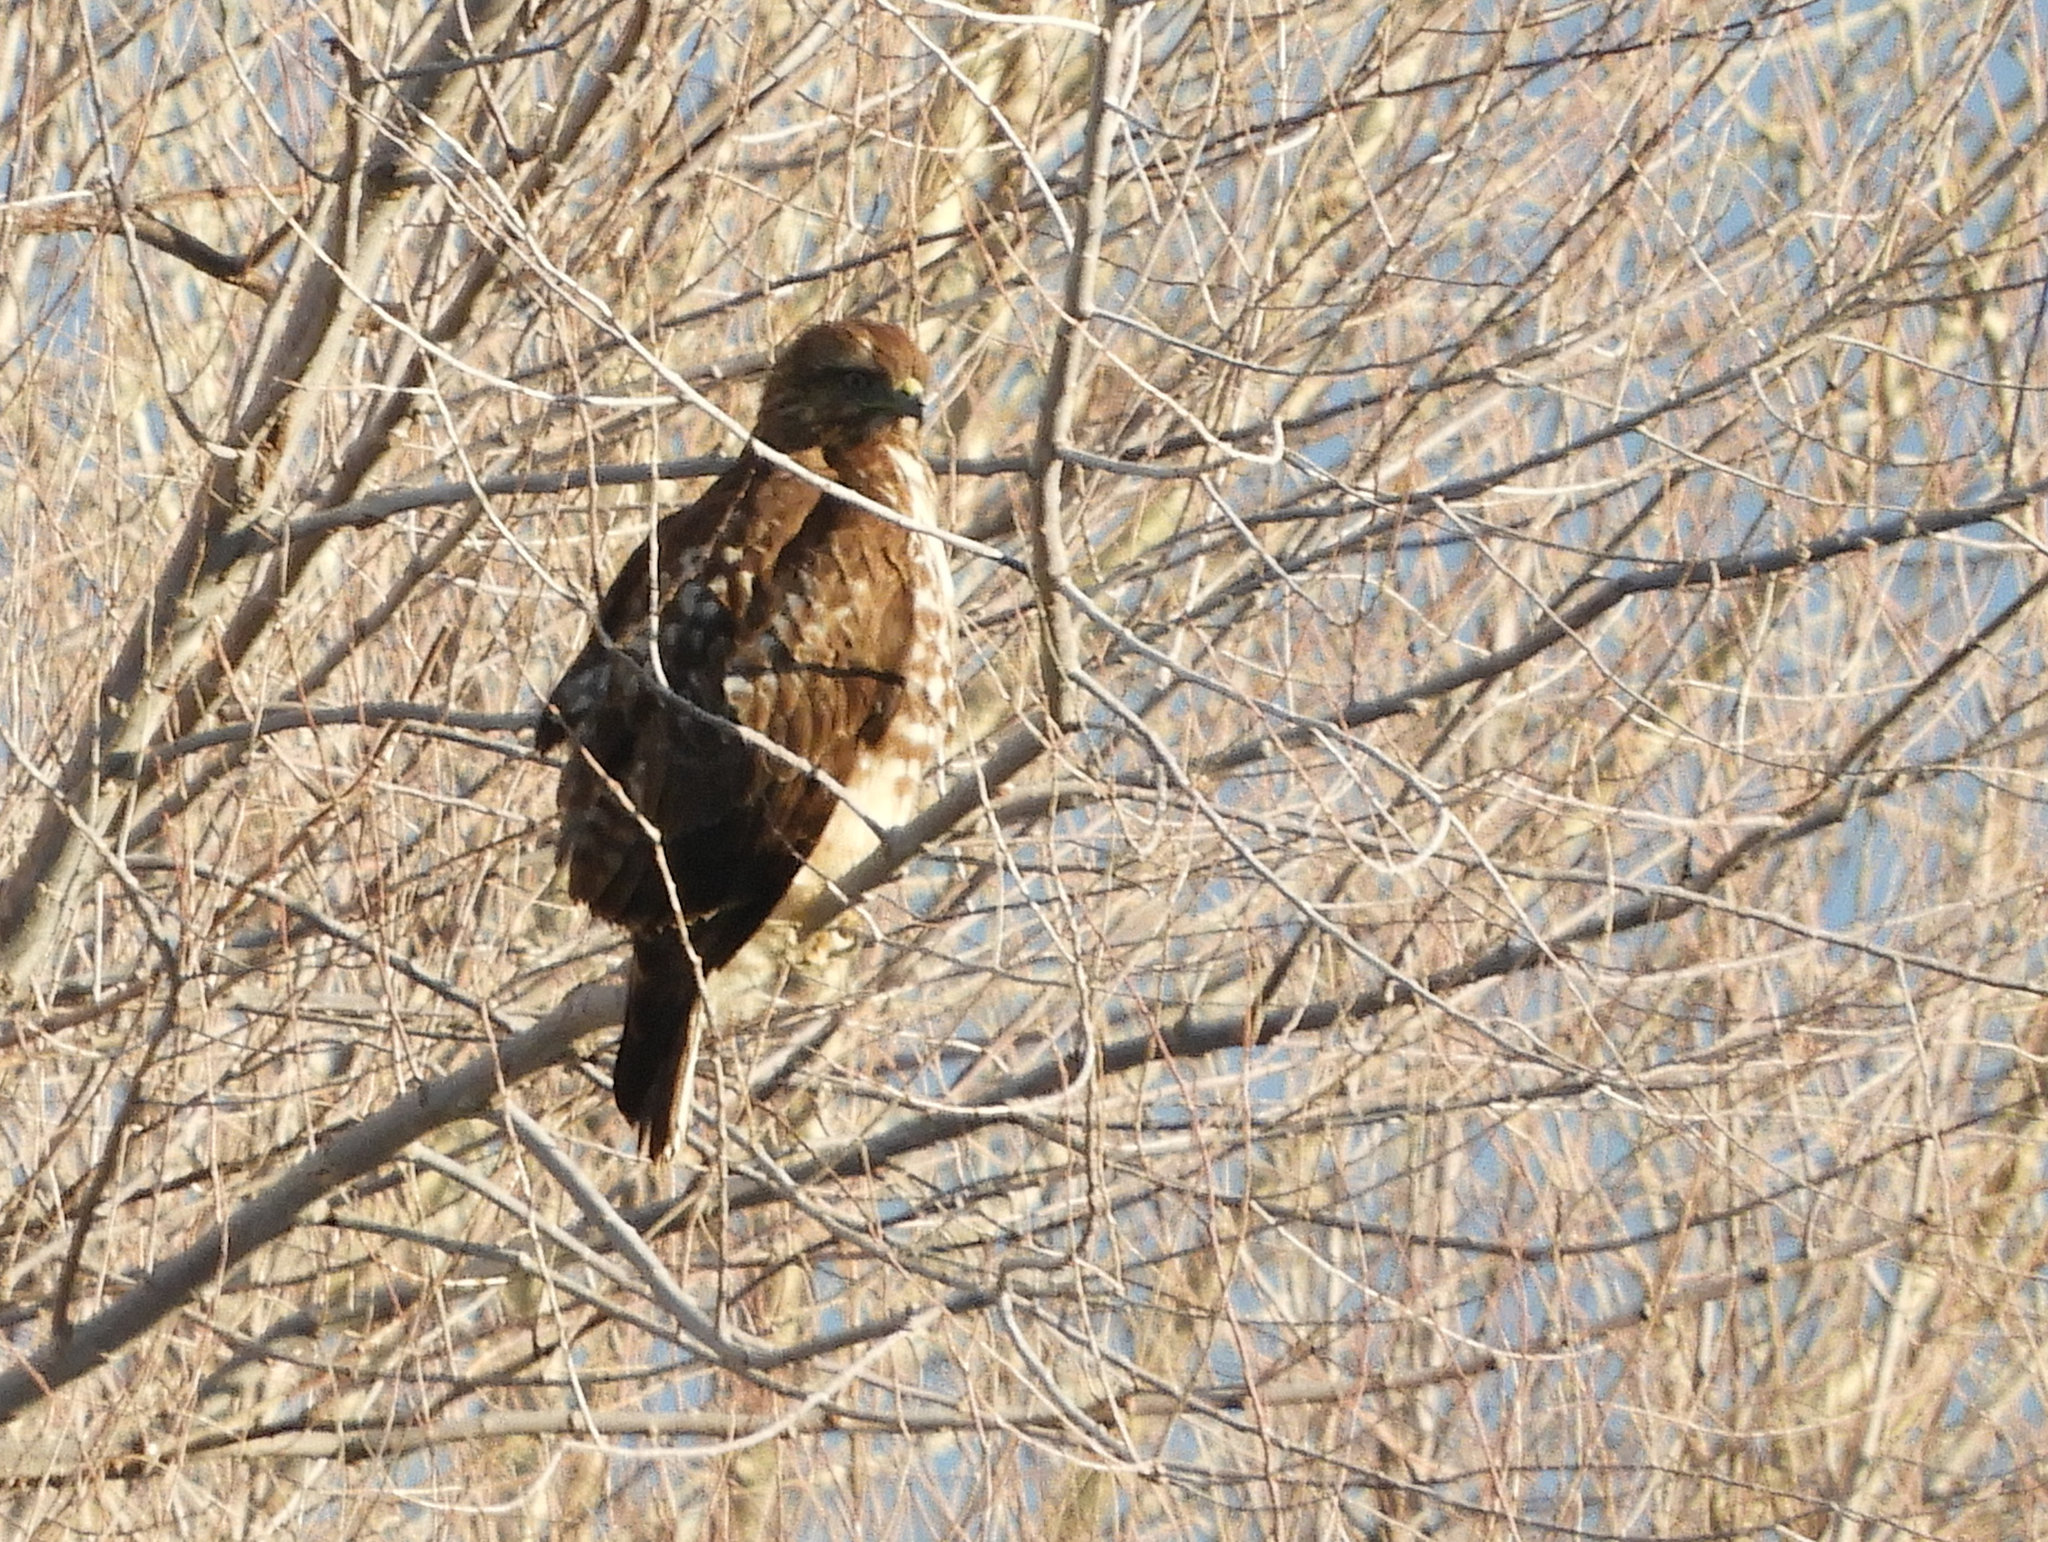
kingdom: Animalia
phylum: Chordata
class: Aves
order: Accipitriformes
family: Accipitridae
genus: Buteo
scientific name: Buteo jamaicensis
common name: Red-tailed hawk
